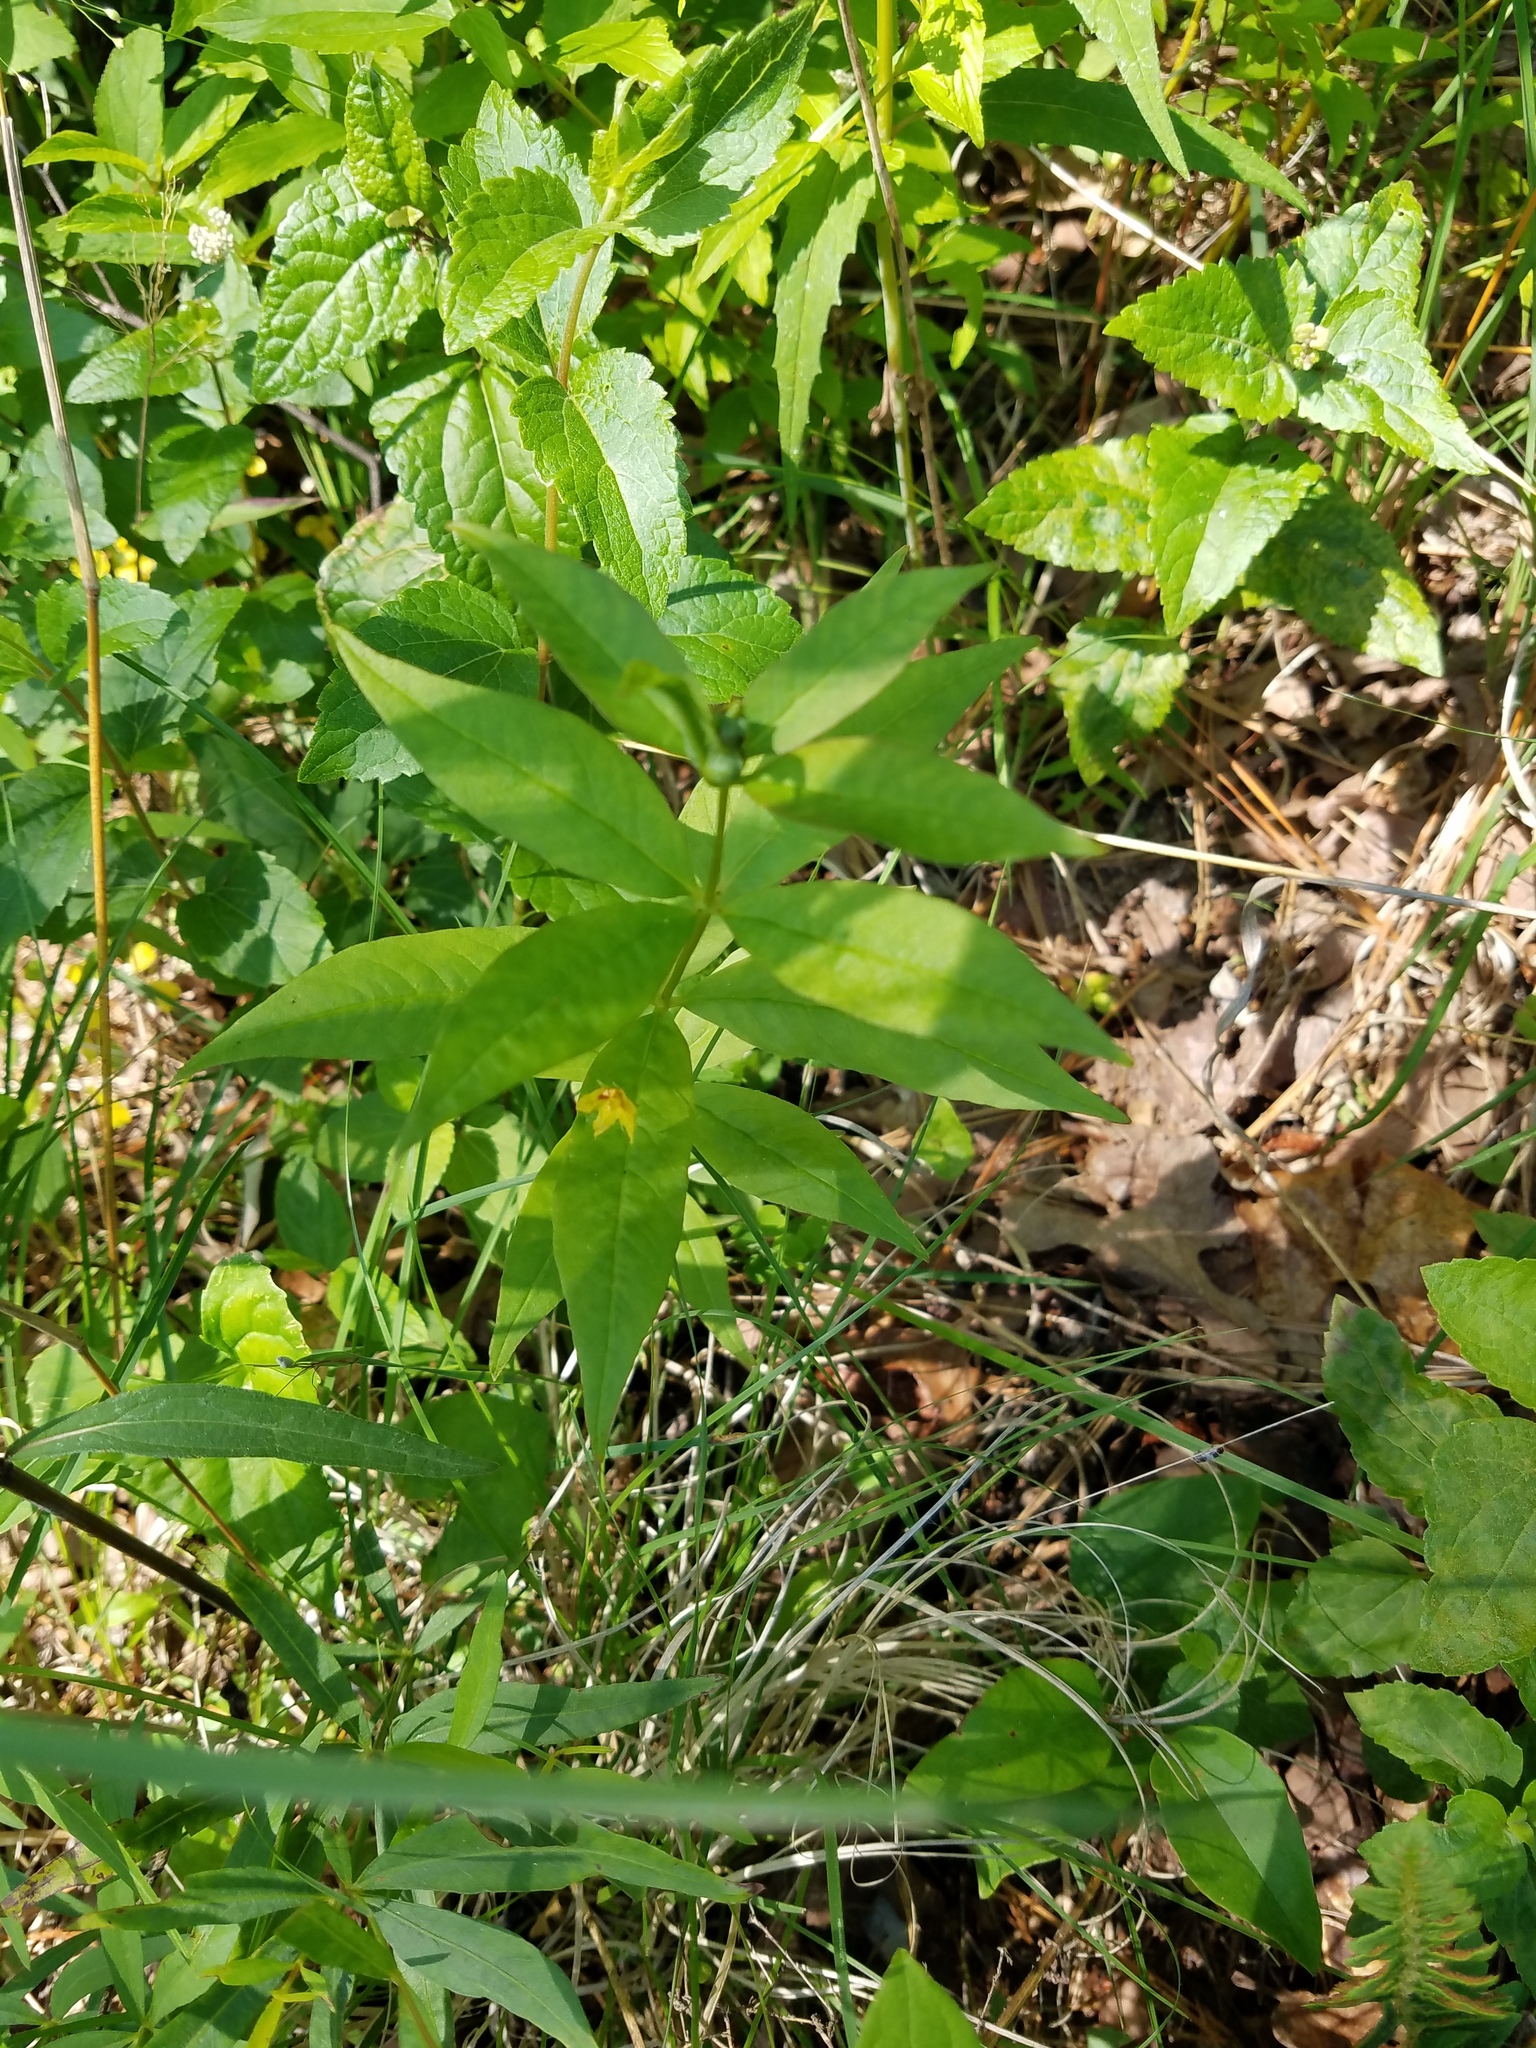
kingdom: Plantae
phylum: Tracheophyta
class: Magnoliopsida
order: Ericales
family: Primulaceae
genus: Lysimachia
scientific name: Lysimachia quadrifolia
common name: Whorled loosestrife
